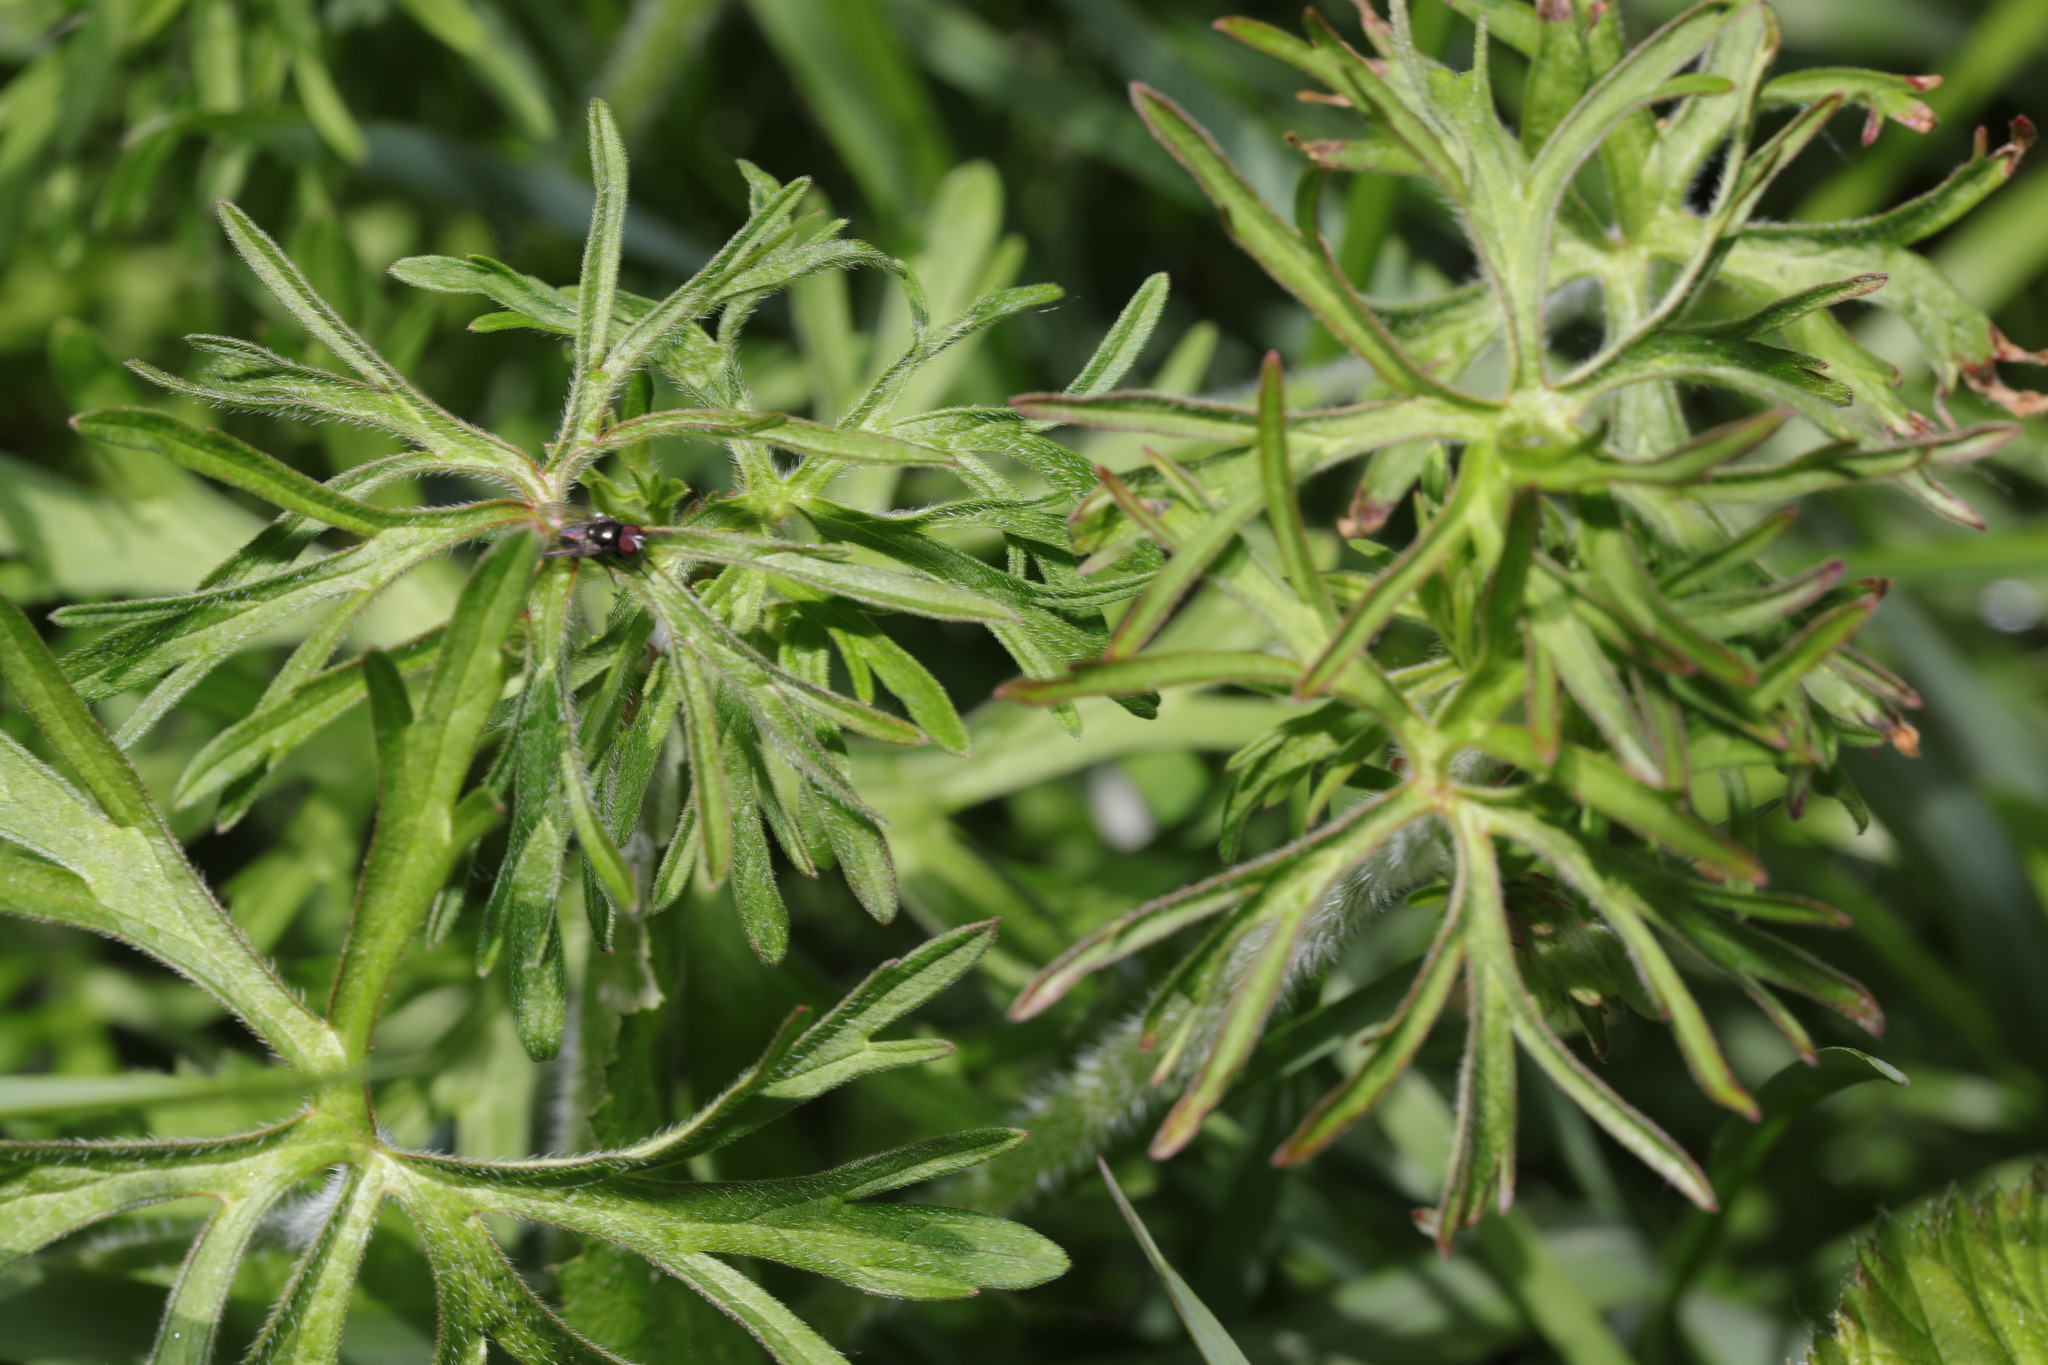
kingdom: Plantae
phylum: Tracheophyta
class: Magnoliopsida
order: Geraniales
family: Geraniaceae
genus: Geranium
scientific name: Geranium dissectum
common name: Cut-leaved crane's-bill
